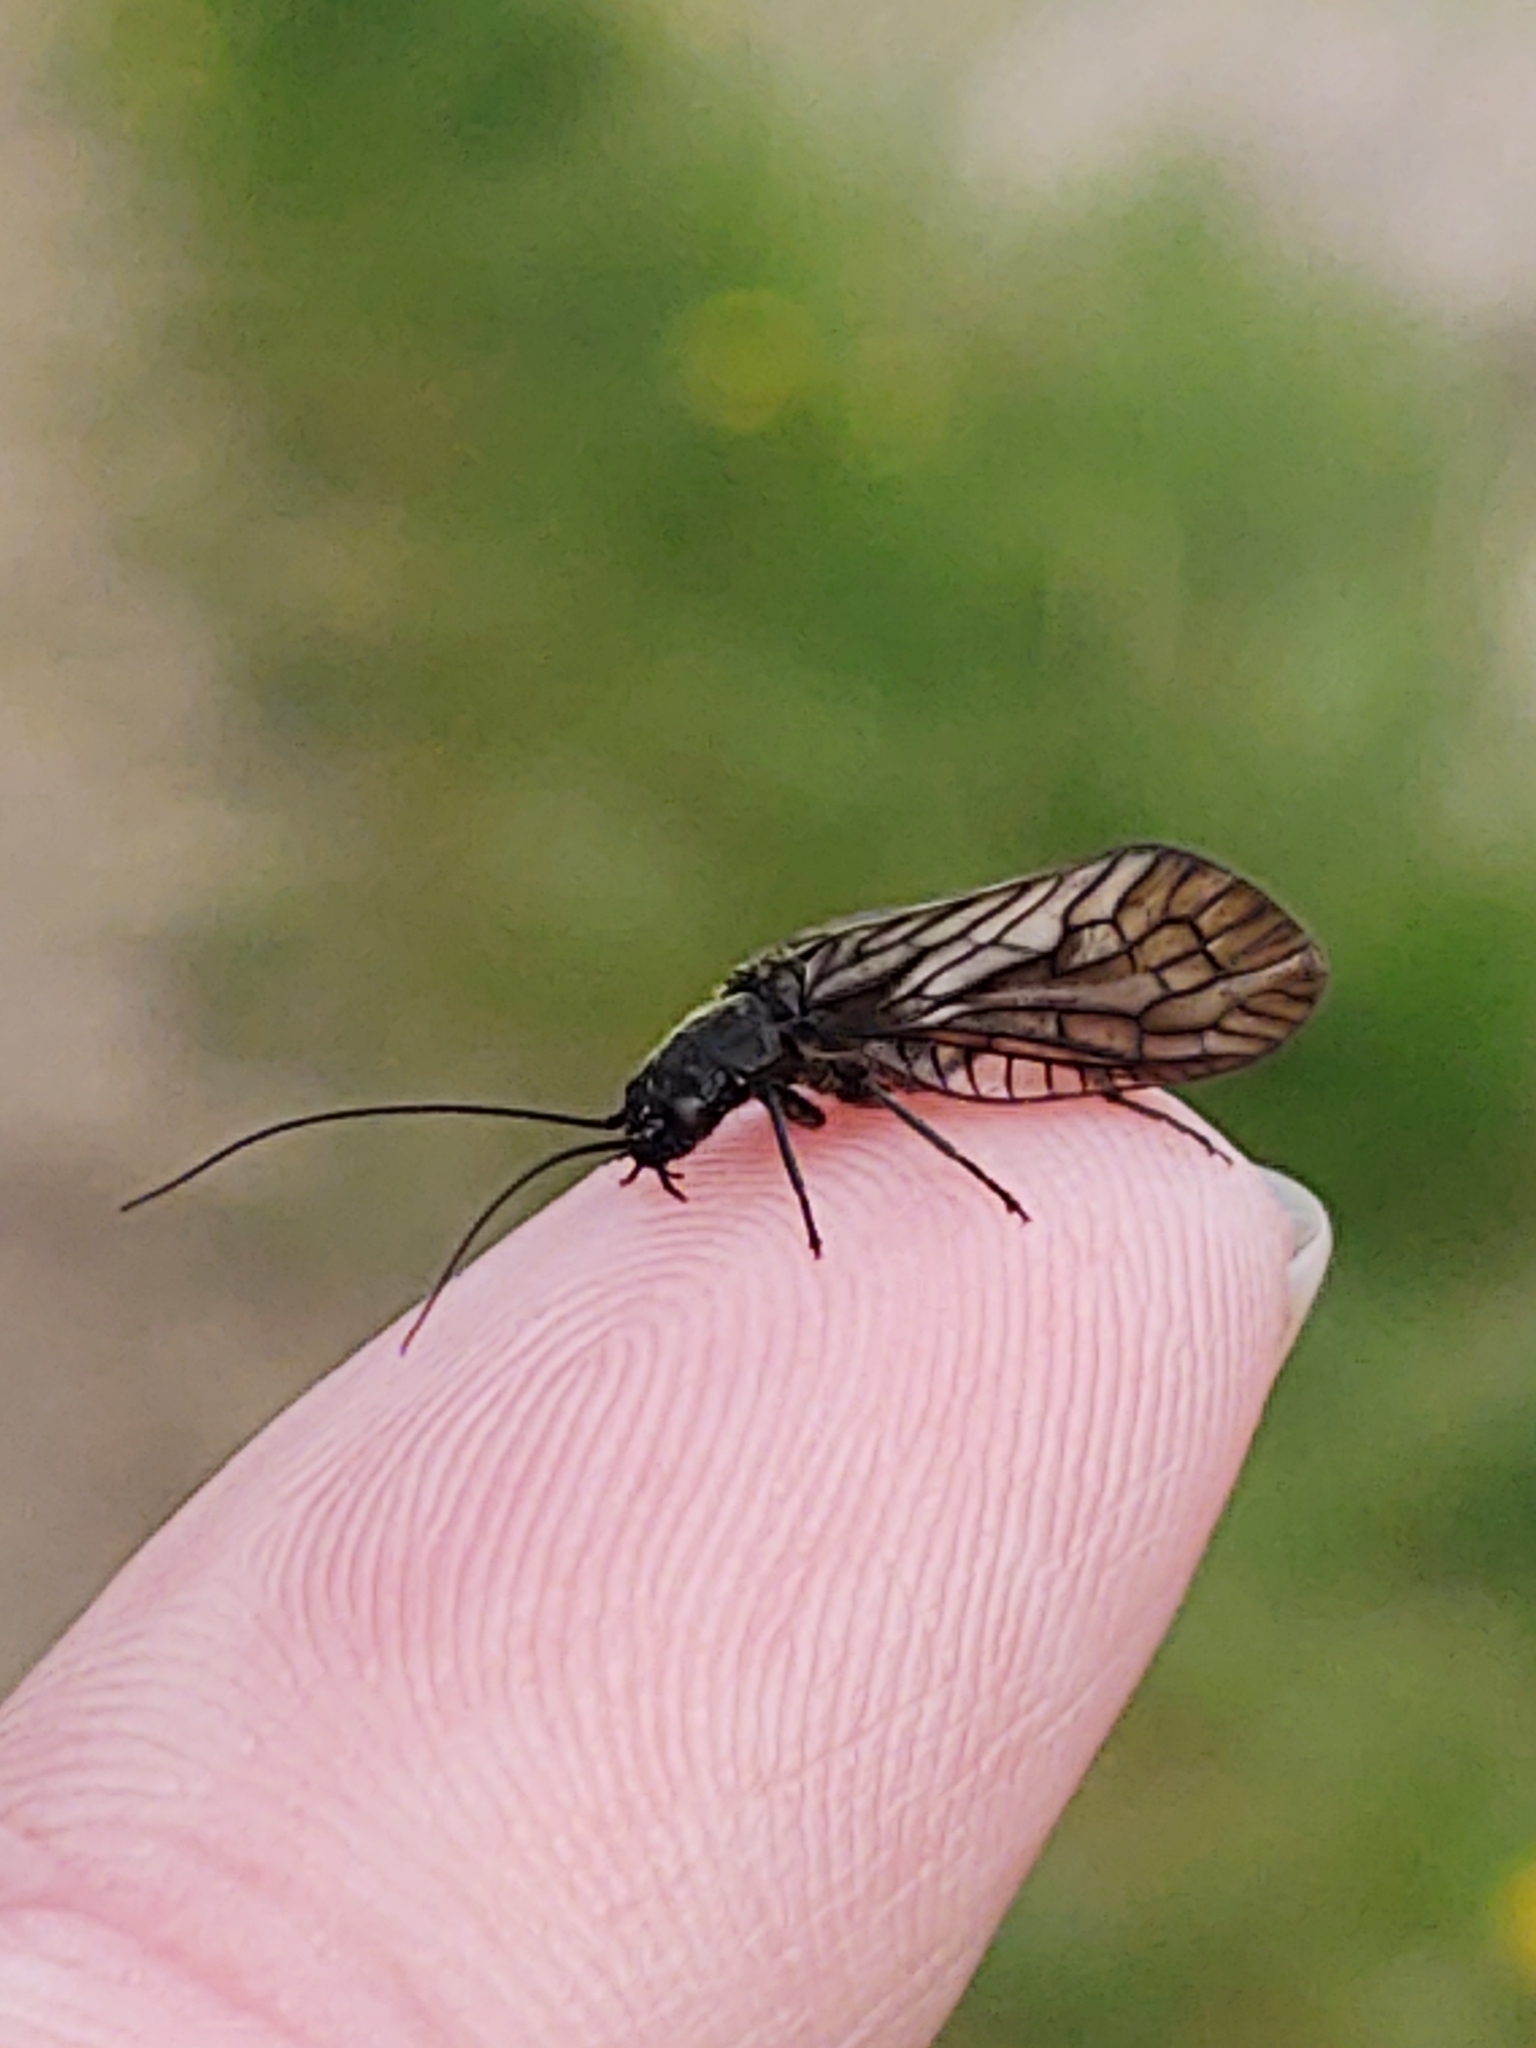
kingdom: Animalia
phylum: Arthropoda
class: Insecta
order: Megaloptera
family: Sialidae
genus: Sialis
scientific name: Sialis
